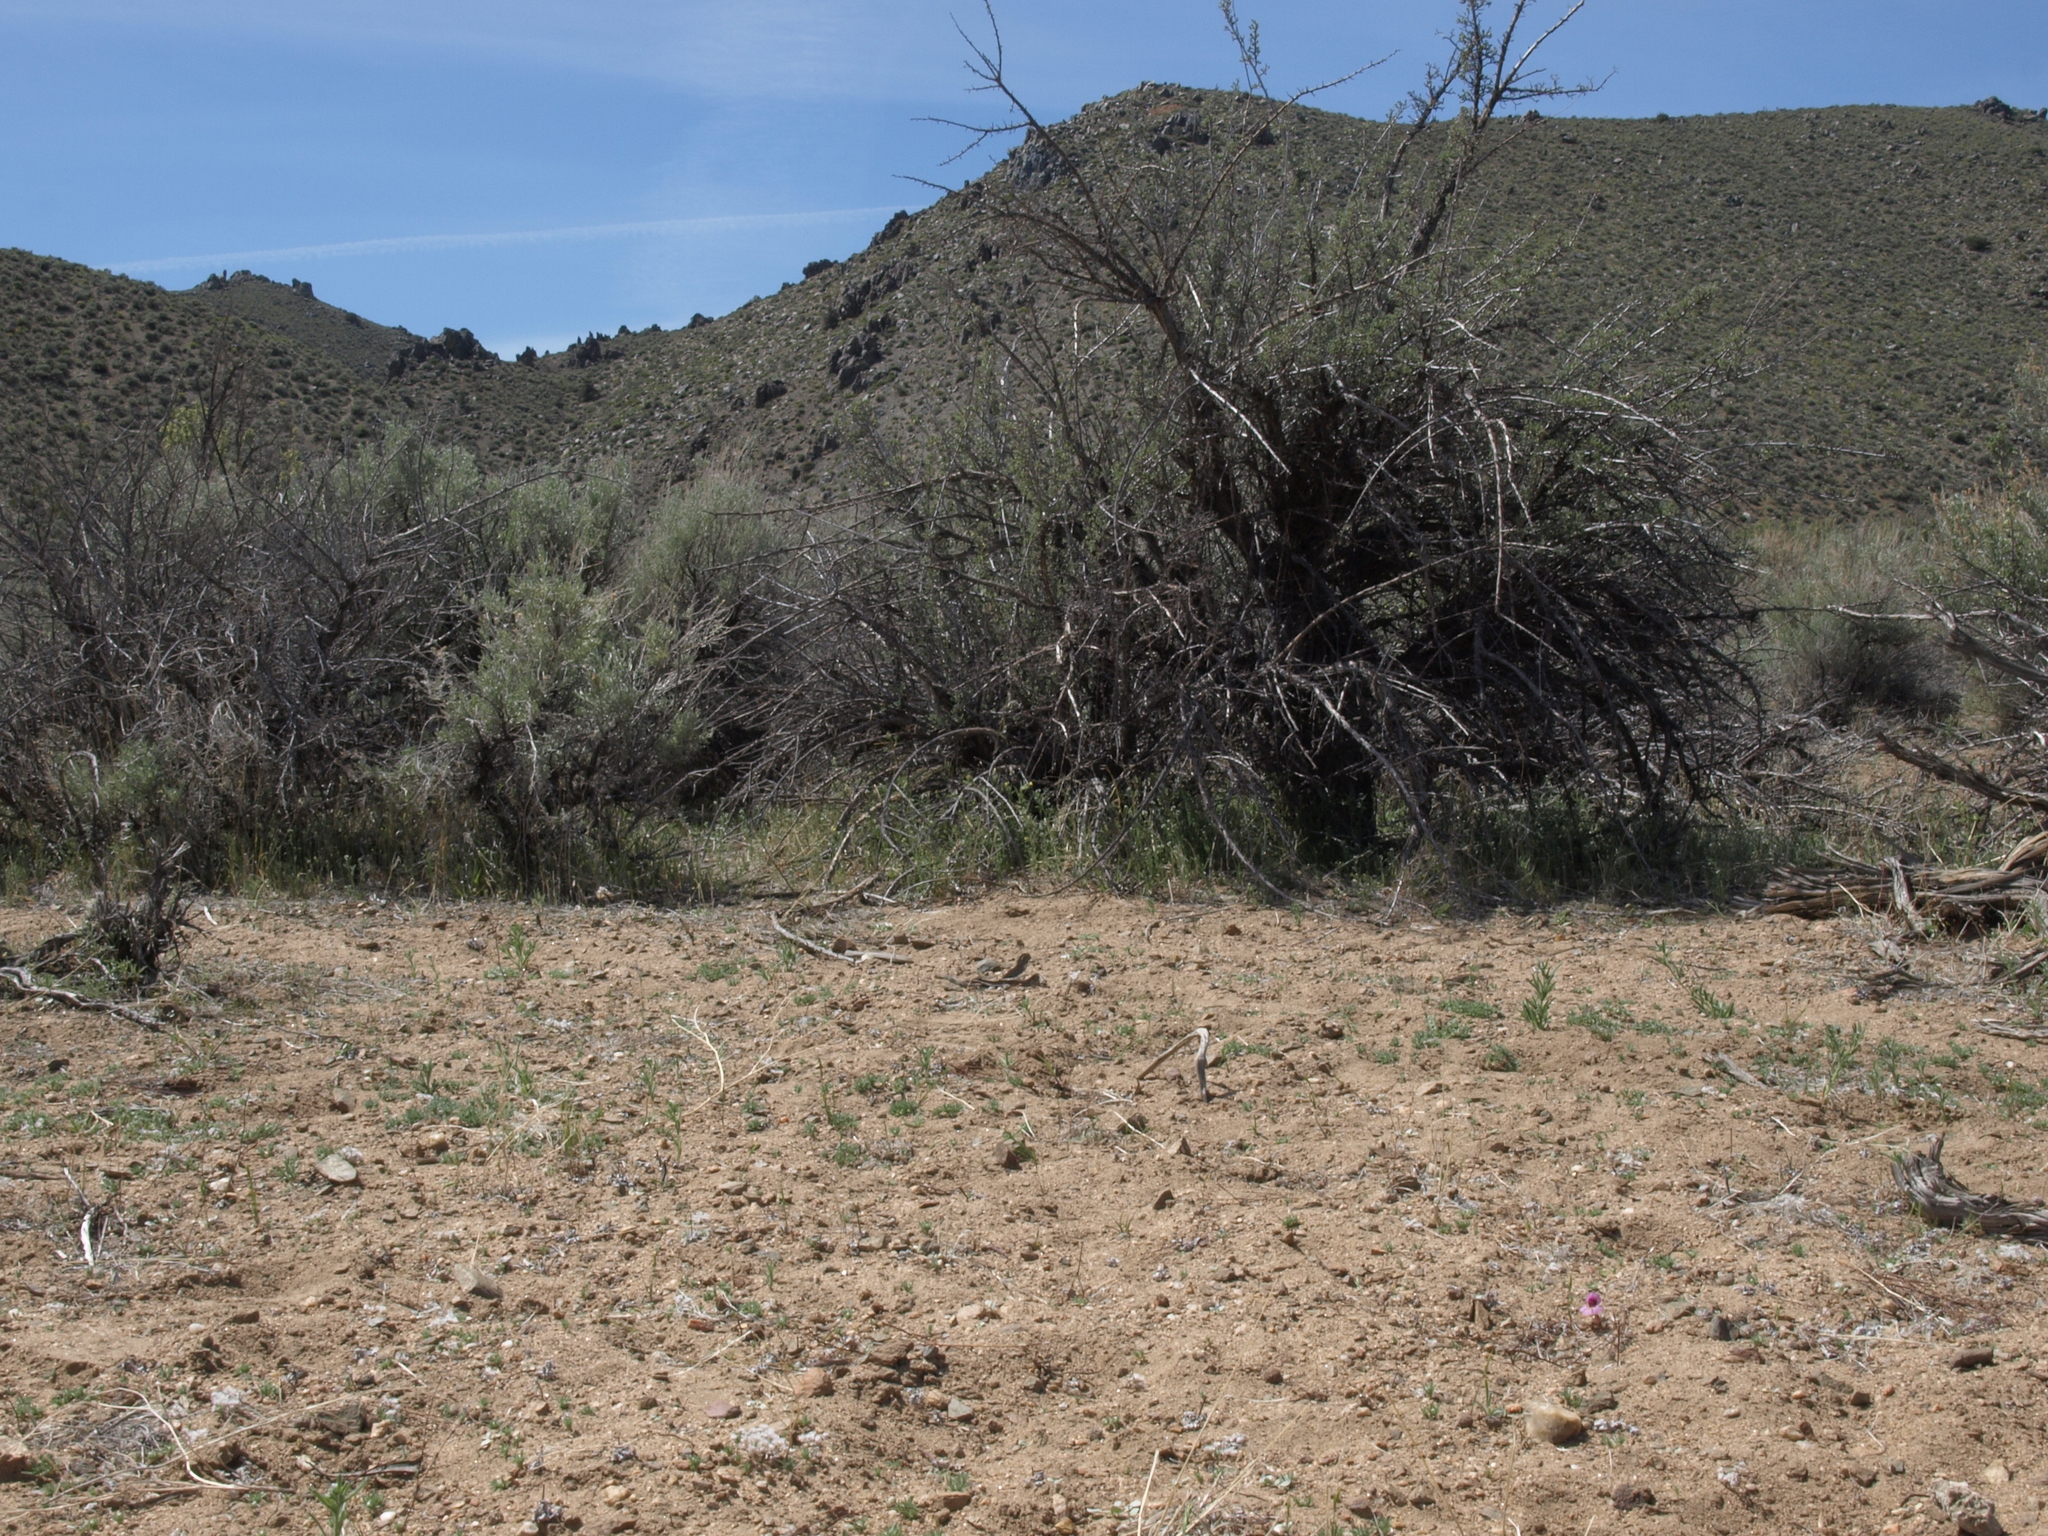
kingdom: Plantae
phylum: Tracheophyta
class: Magnoliopsida
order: Lamiales
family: Phrymaceae
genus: Diplacus
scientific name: Diplacus ovatus
